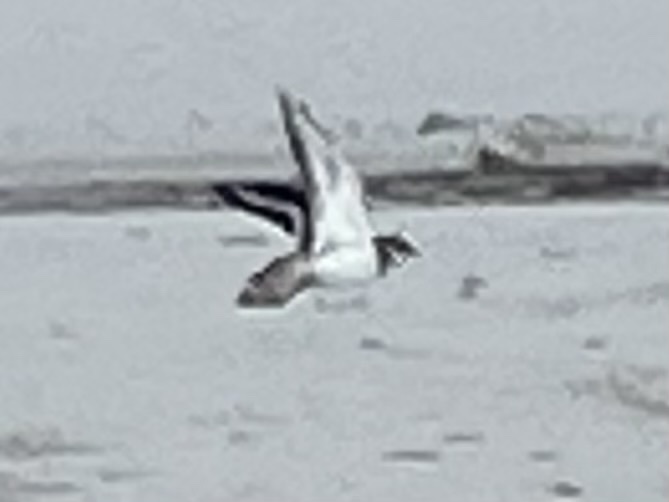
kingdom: Animalia
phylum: Chordata
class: Aves
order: Charadriiformes
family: Charadriidae
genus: Charadrius
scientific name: Charadrius vociferus
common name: Killdeer
